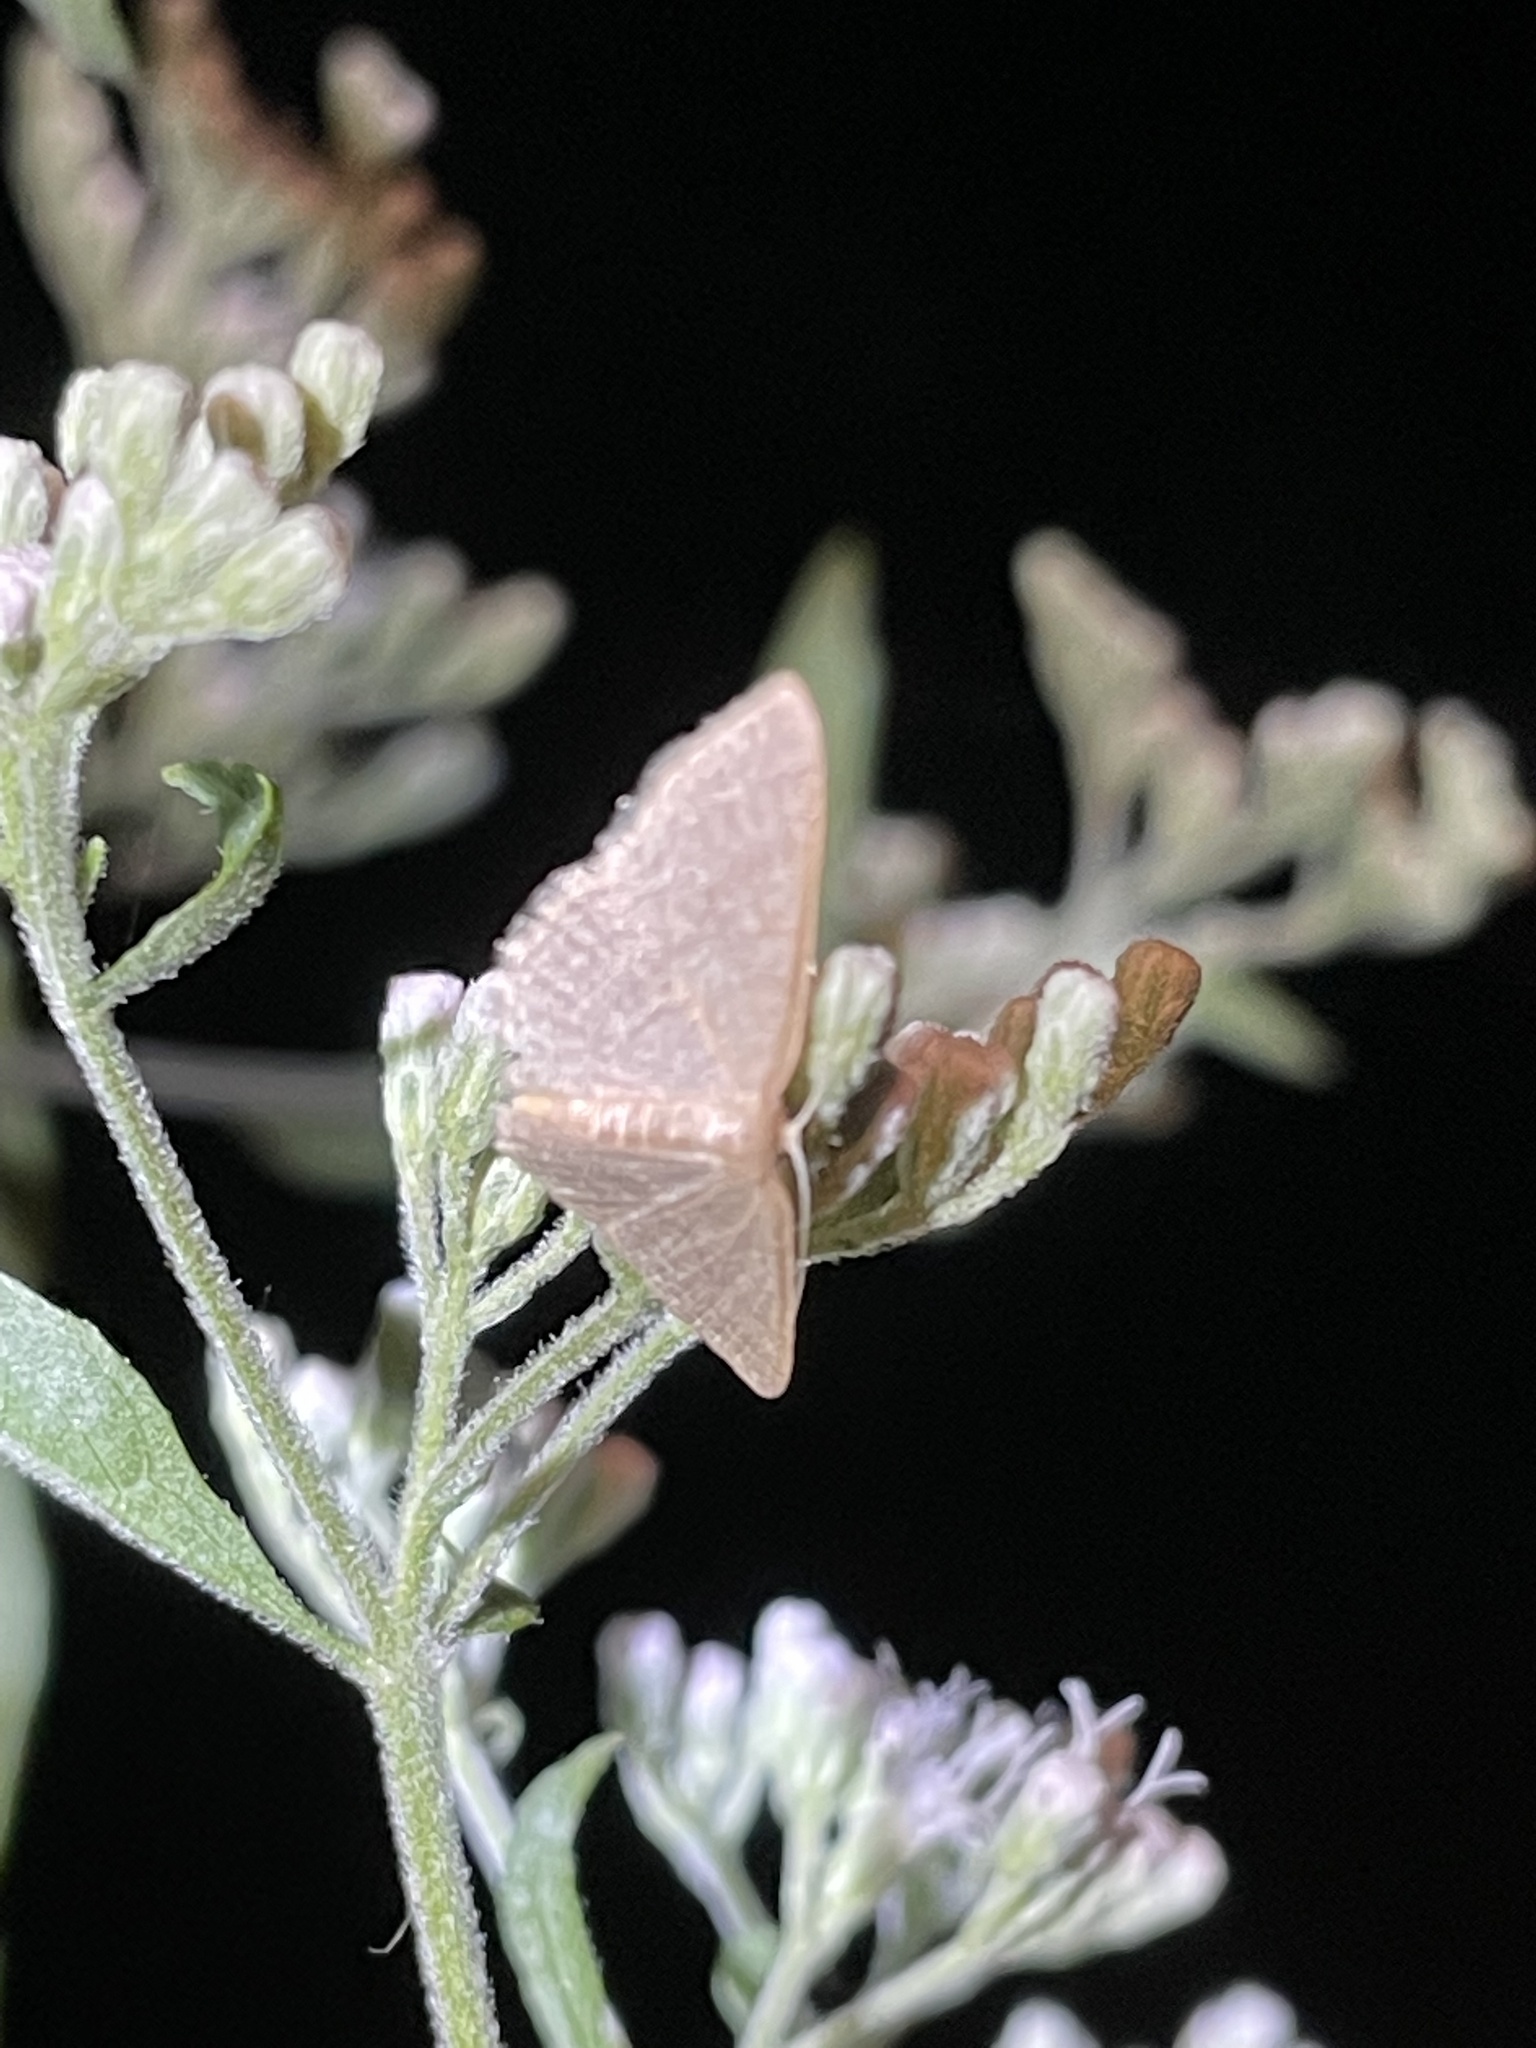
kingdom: Animalia
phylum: Arthropoda
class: Insecta
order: Lepidoptera
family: Geometridae
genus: Pleuroprucha
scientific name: Pleuroprucha insulsaria
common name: Common tan wave
